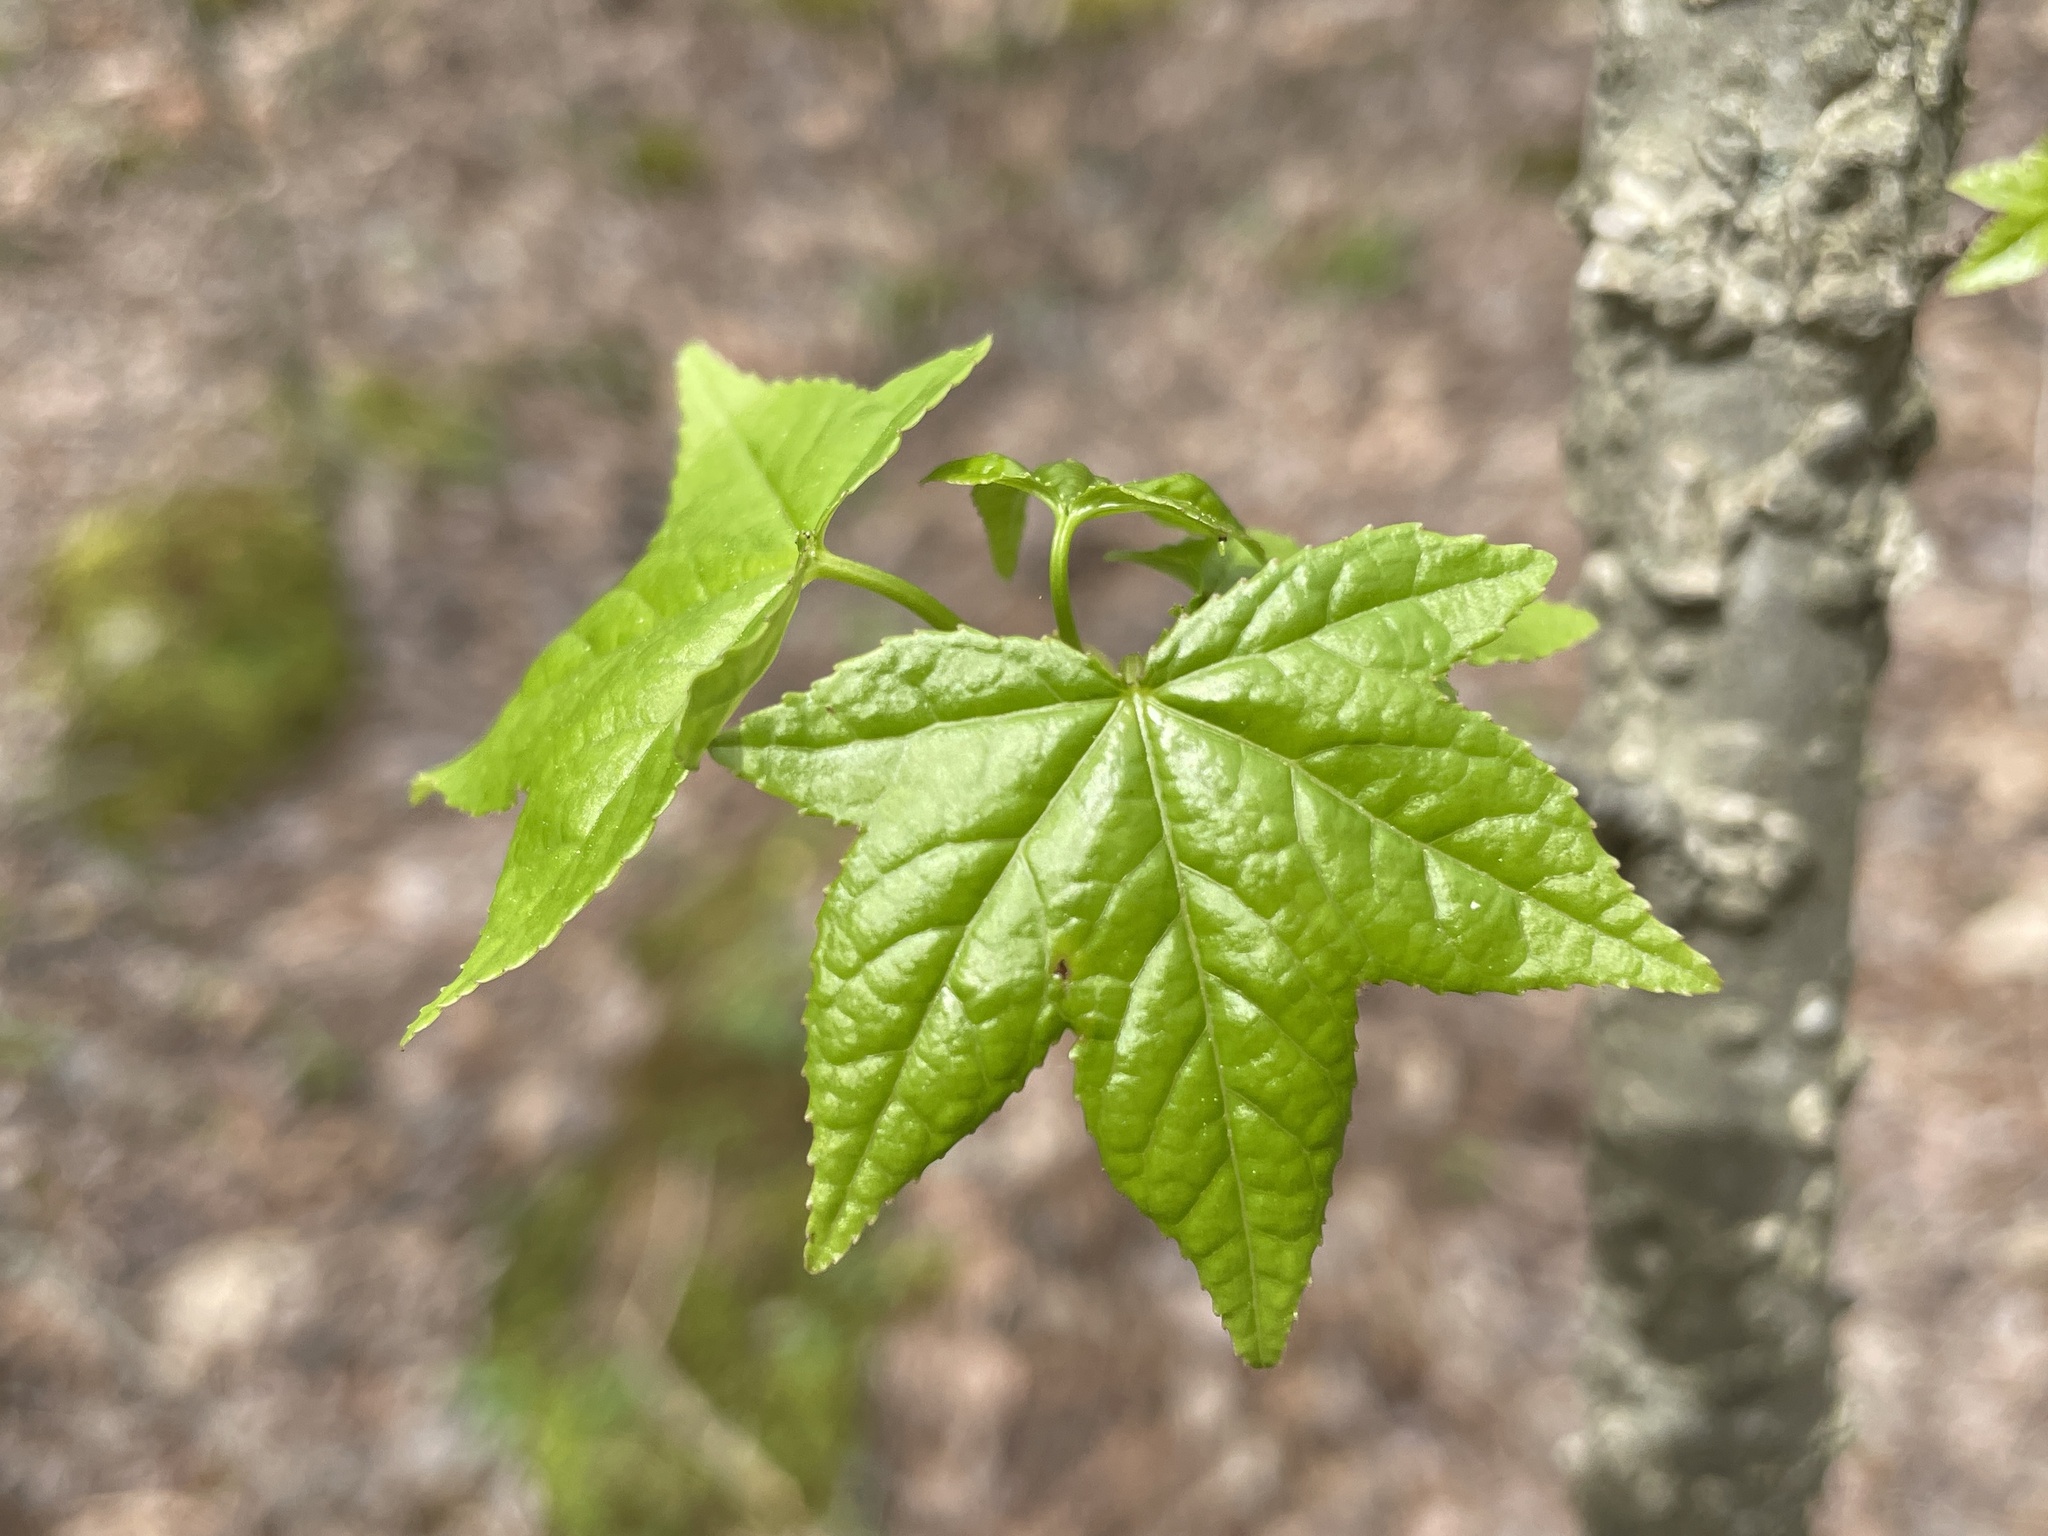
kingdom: Plantae
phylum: Tracheophyta
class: Magnoliopsida
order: Saxifragales
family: Altingiaceae
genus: Liquidambar
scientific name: Liquidambar styraciflua
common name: Sweet gum
